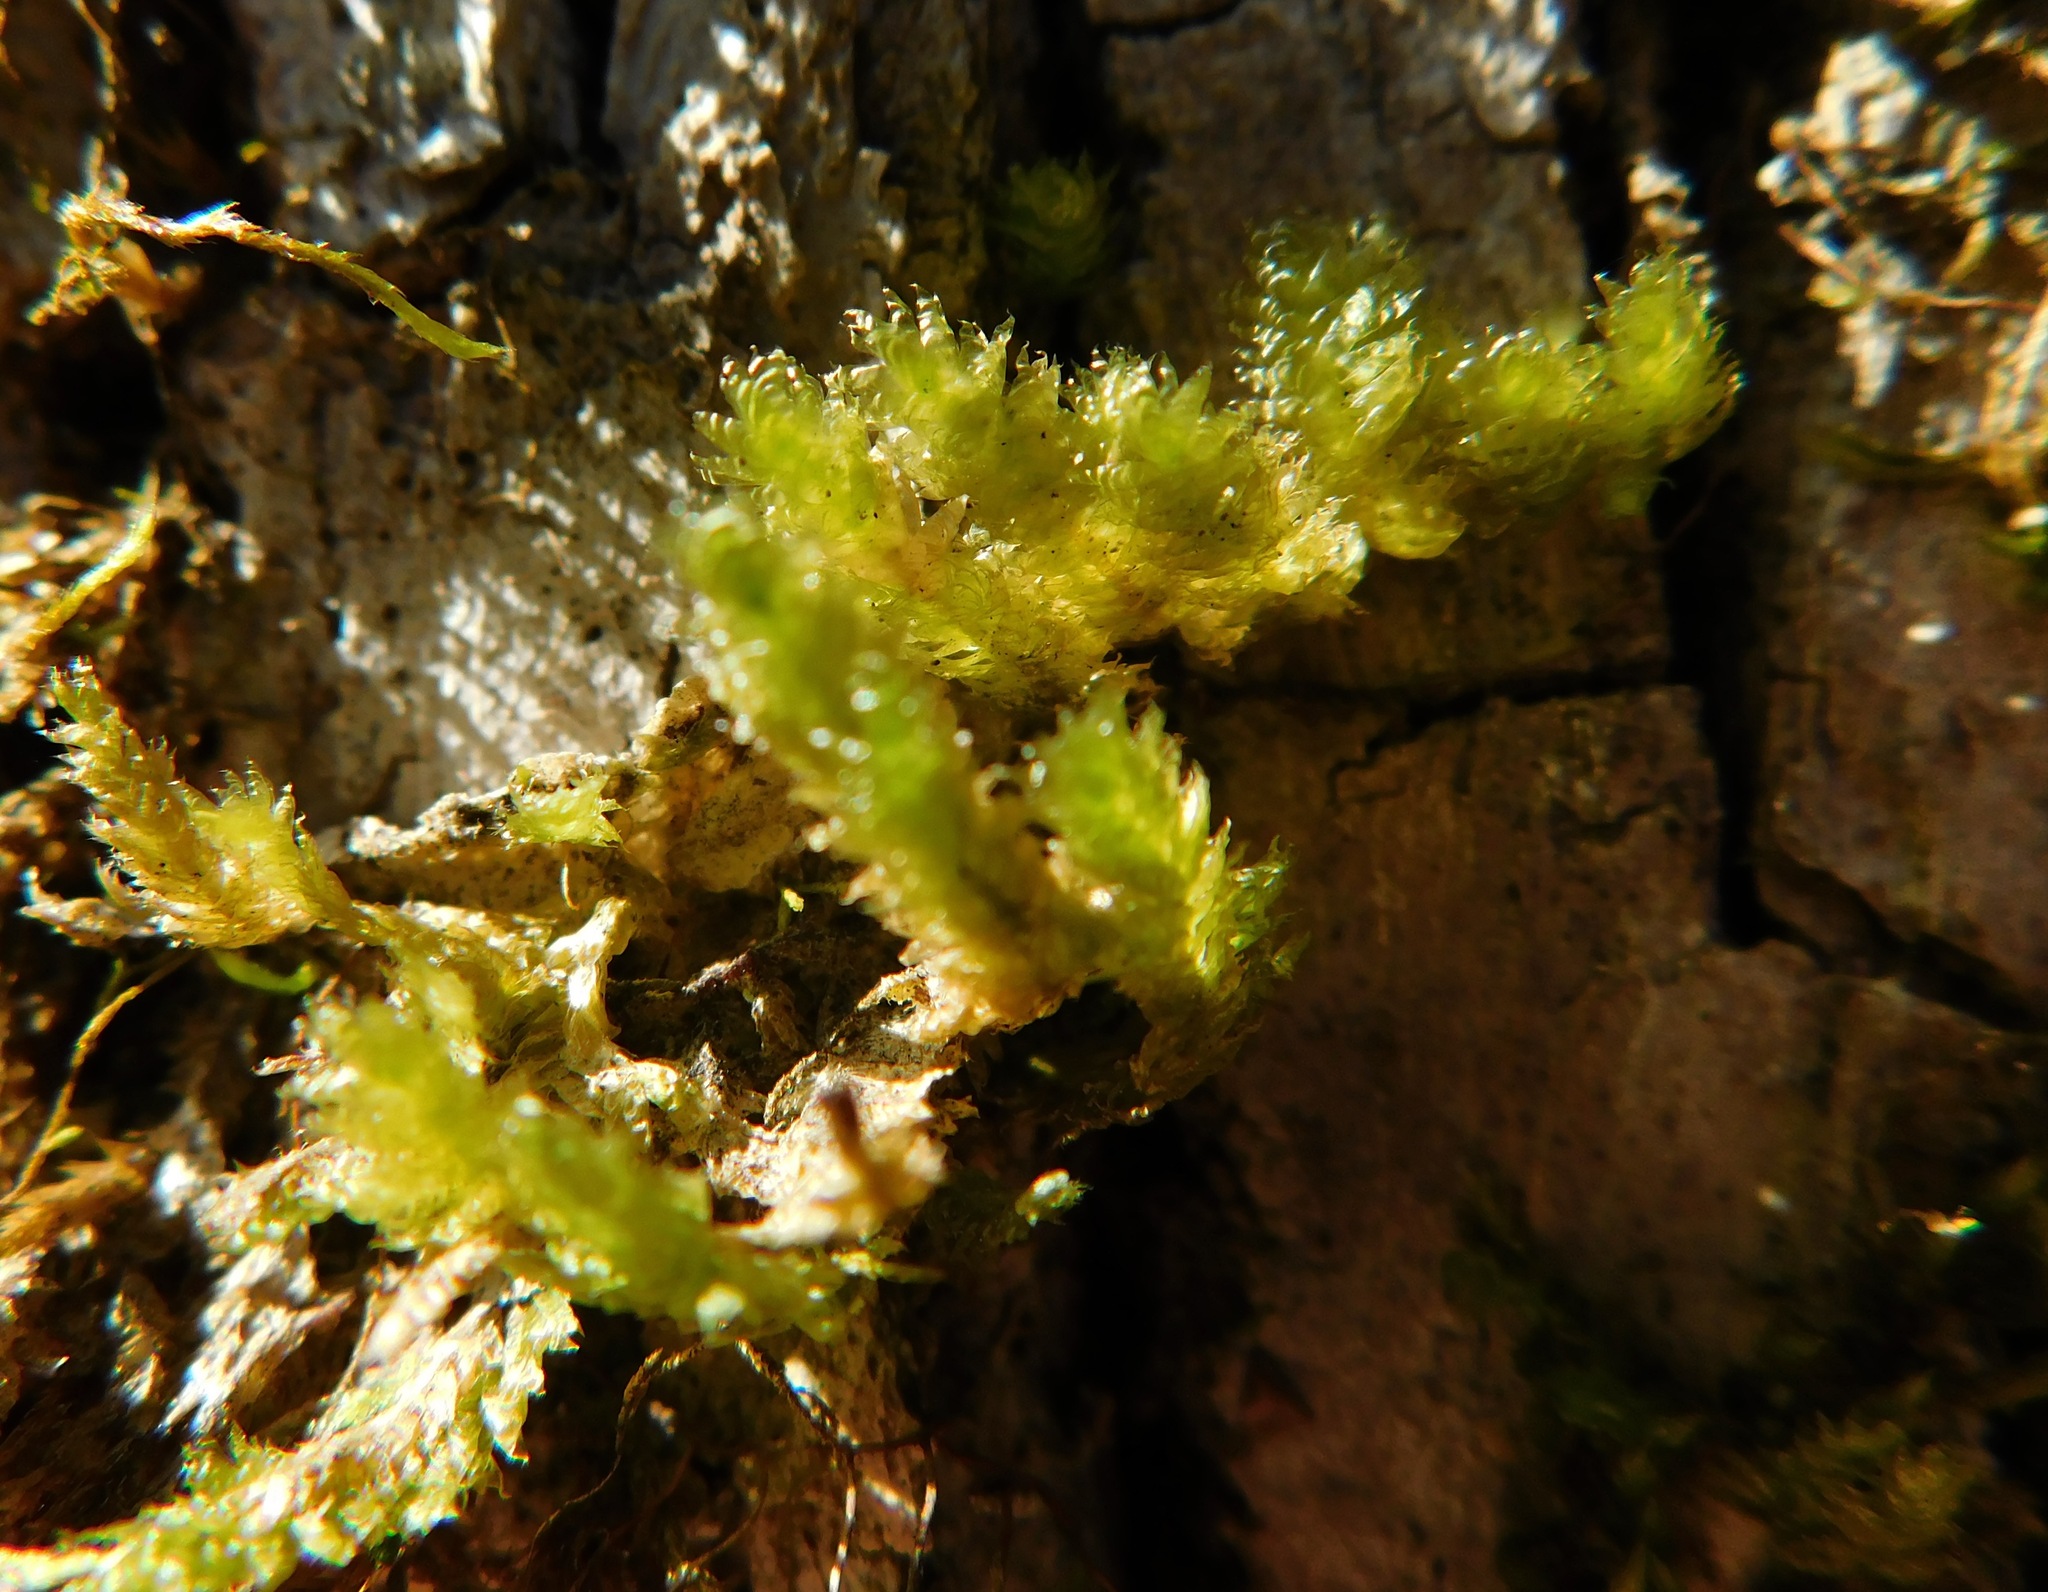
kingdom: Plantae
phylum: Bryophyta
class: Bryopsida
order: Hypnales
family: Neckeraceae
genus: Neckera
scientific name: Neckera pennata
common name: Feathery neckera
